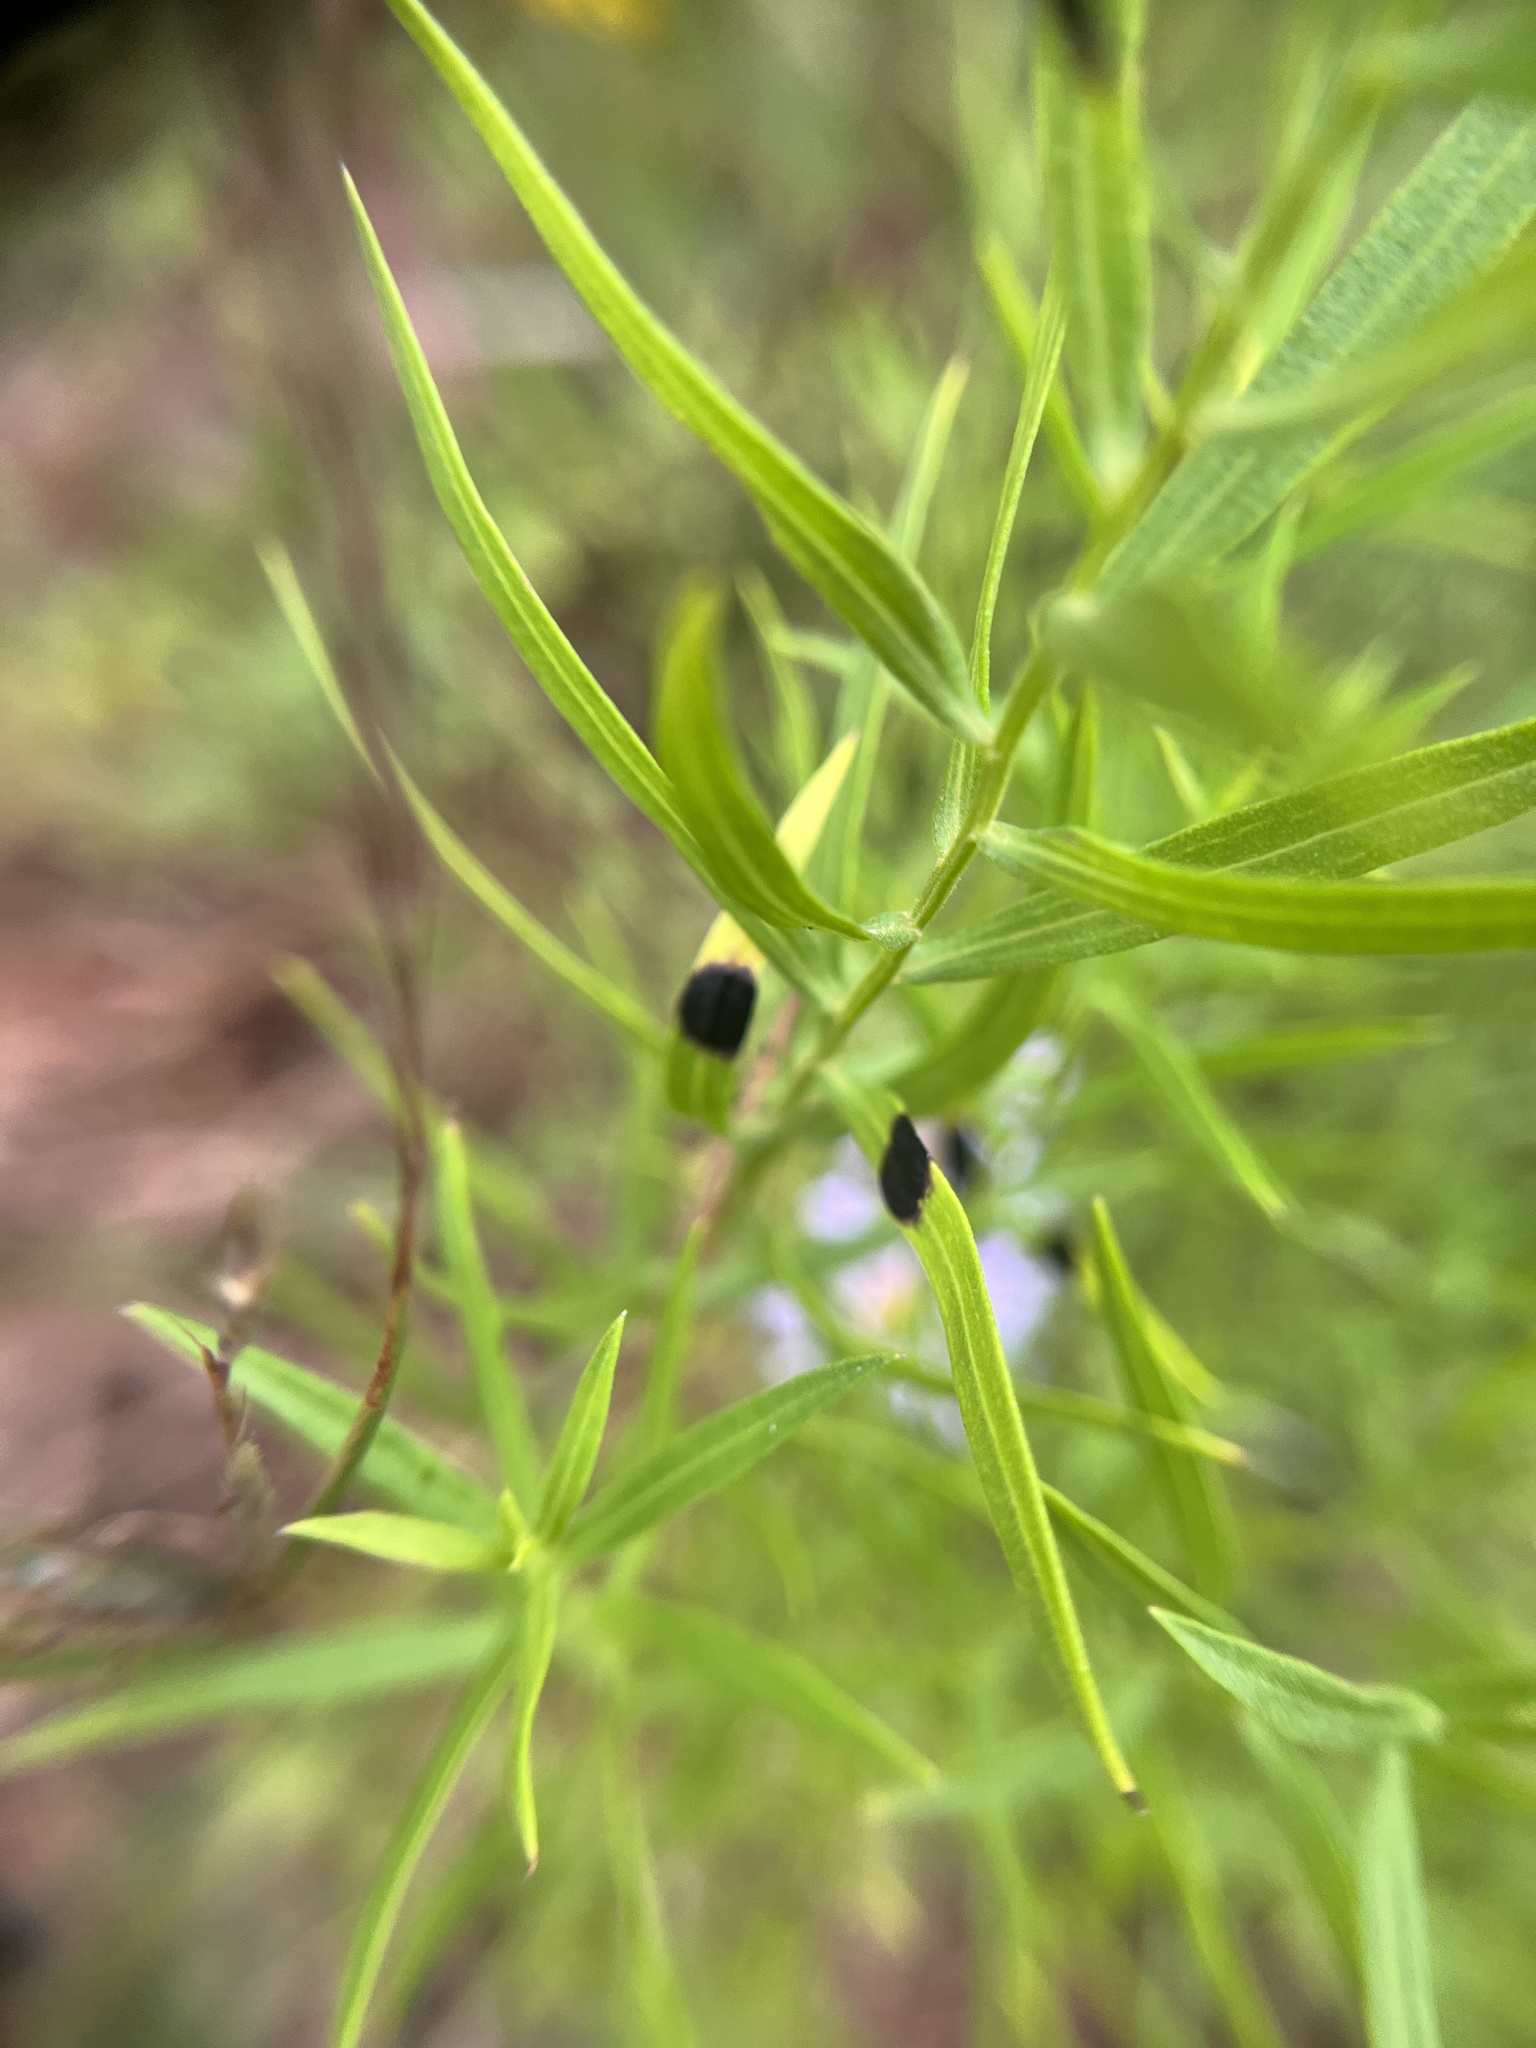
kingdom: Animalia
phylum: Arthropoda
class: Insecta
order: Diptera
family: Cecidomyiidae
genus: Asteromyia
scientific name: Asteromyia euthamiae
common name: Euthamia leaf gall midge
